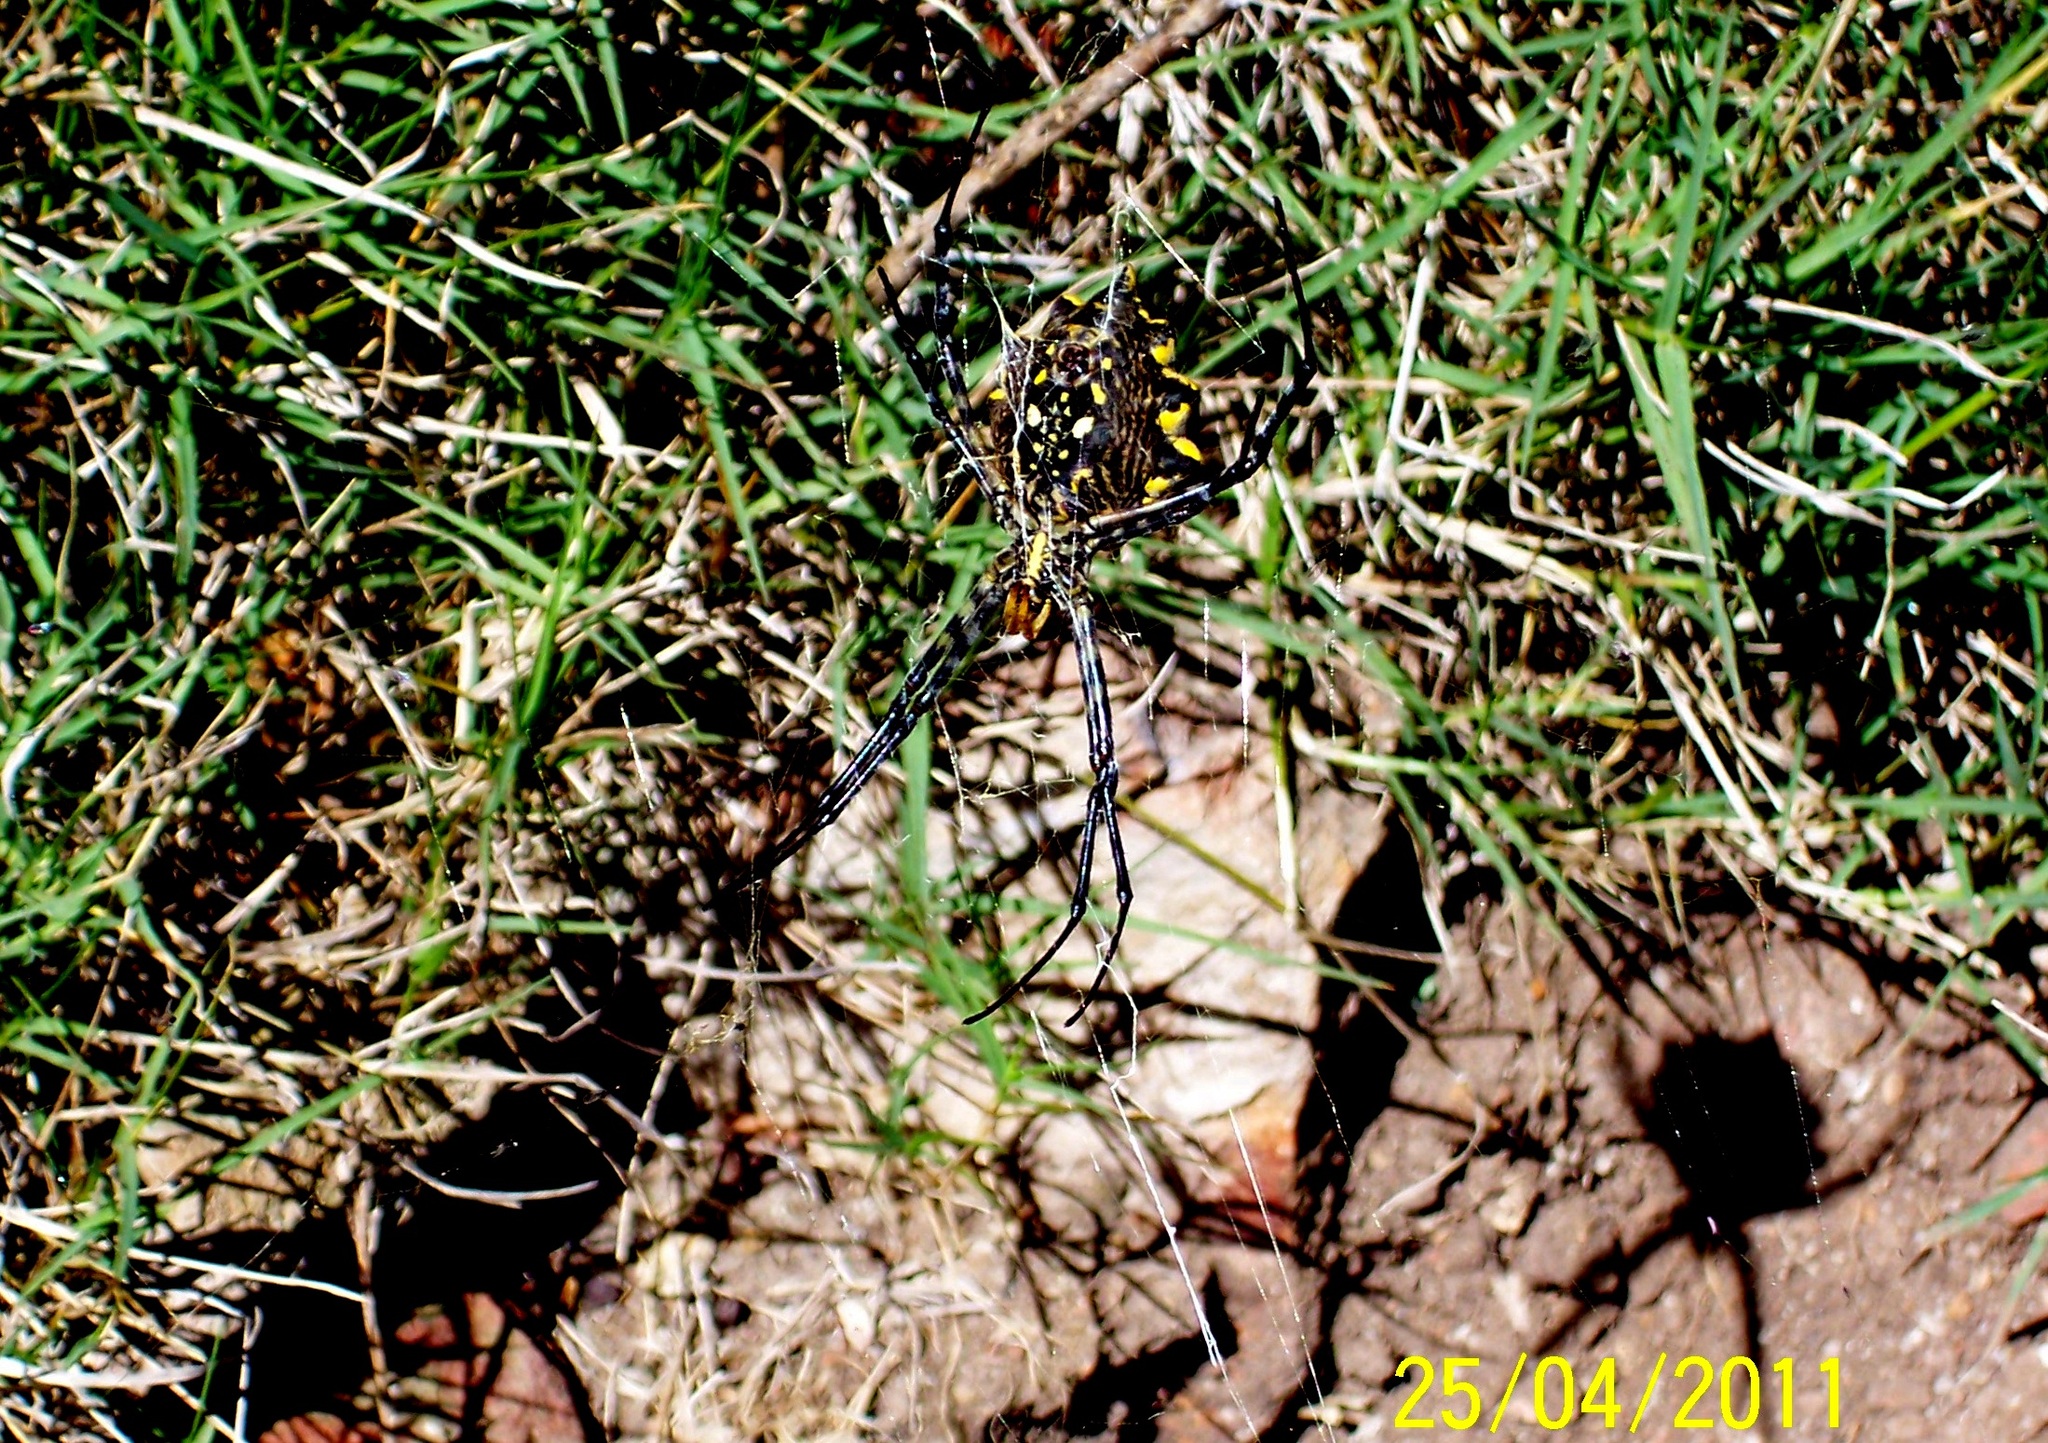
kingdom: Animalia
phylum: Arthropoda
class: Arachnida
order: Araneae
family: Araneidae
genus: Argiope
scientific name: Argiope australis
